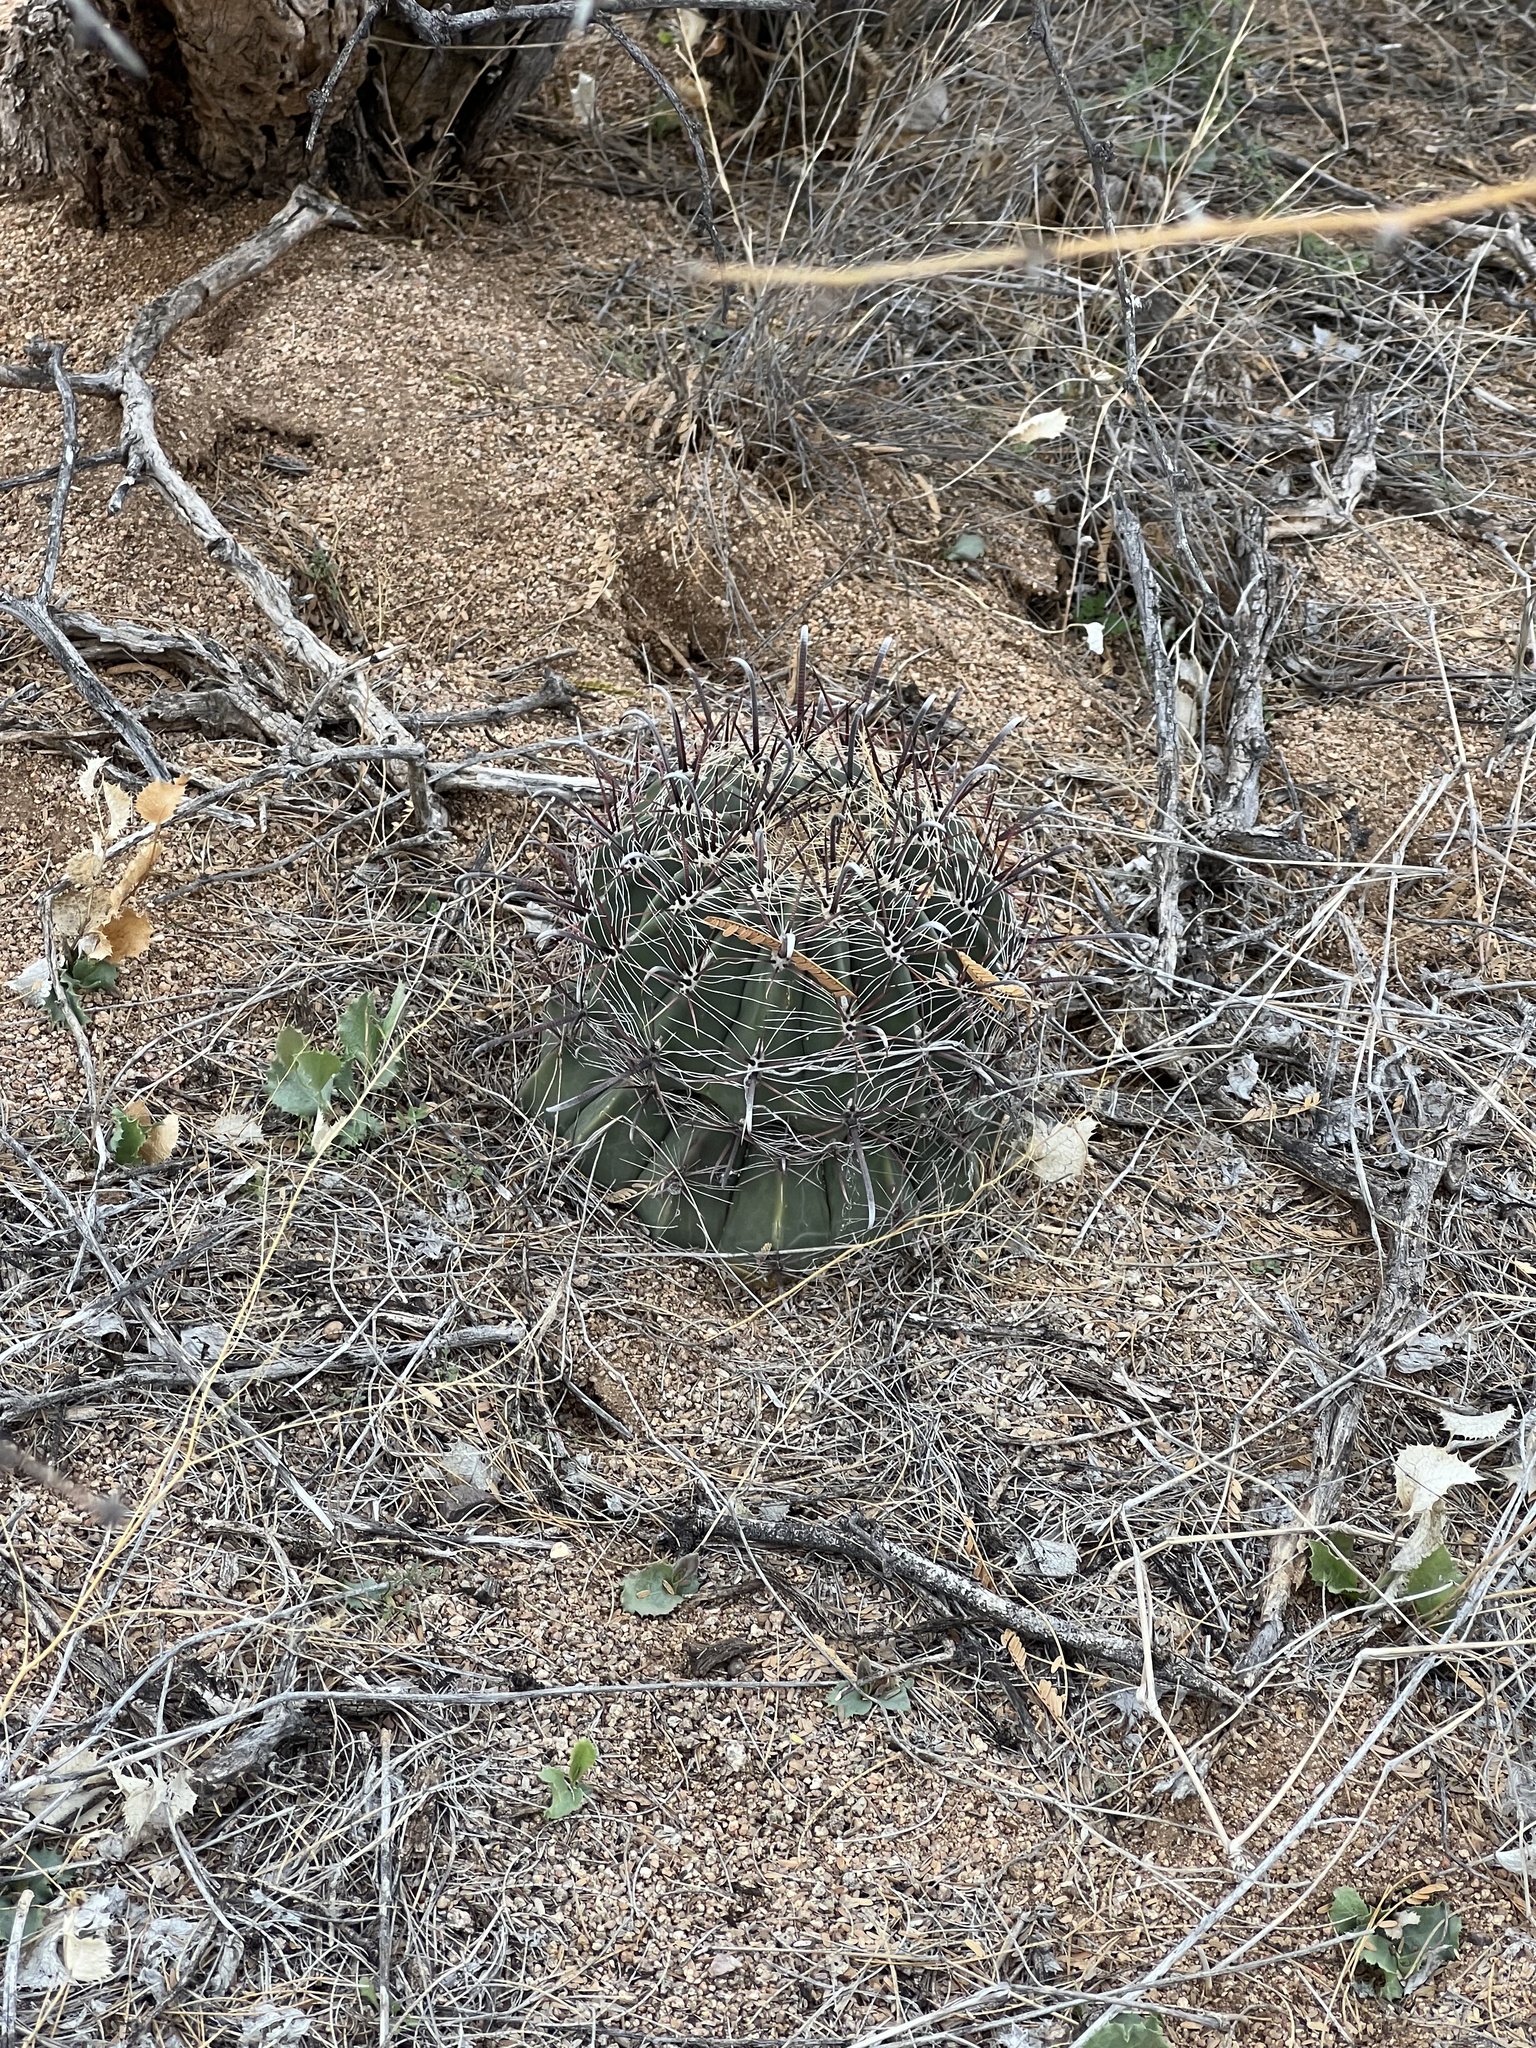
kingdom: Plantae
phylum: Tracheophyta
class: Magnoliopsida
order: Caryophyllales
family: Cactaceae
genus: Ferocactus
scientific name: Ferocactus wislizeni
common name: Candy barrel cactus
